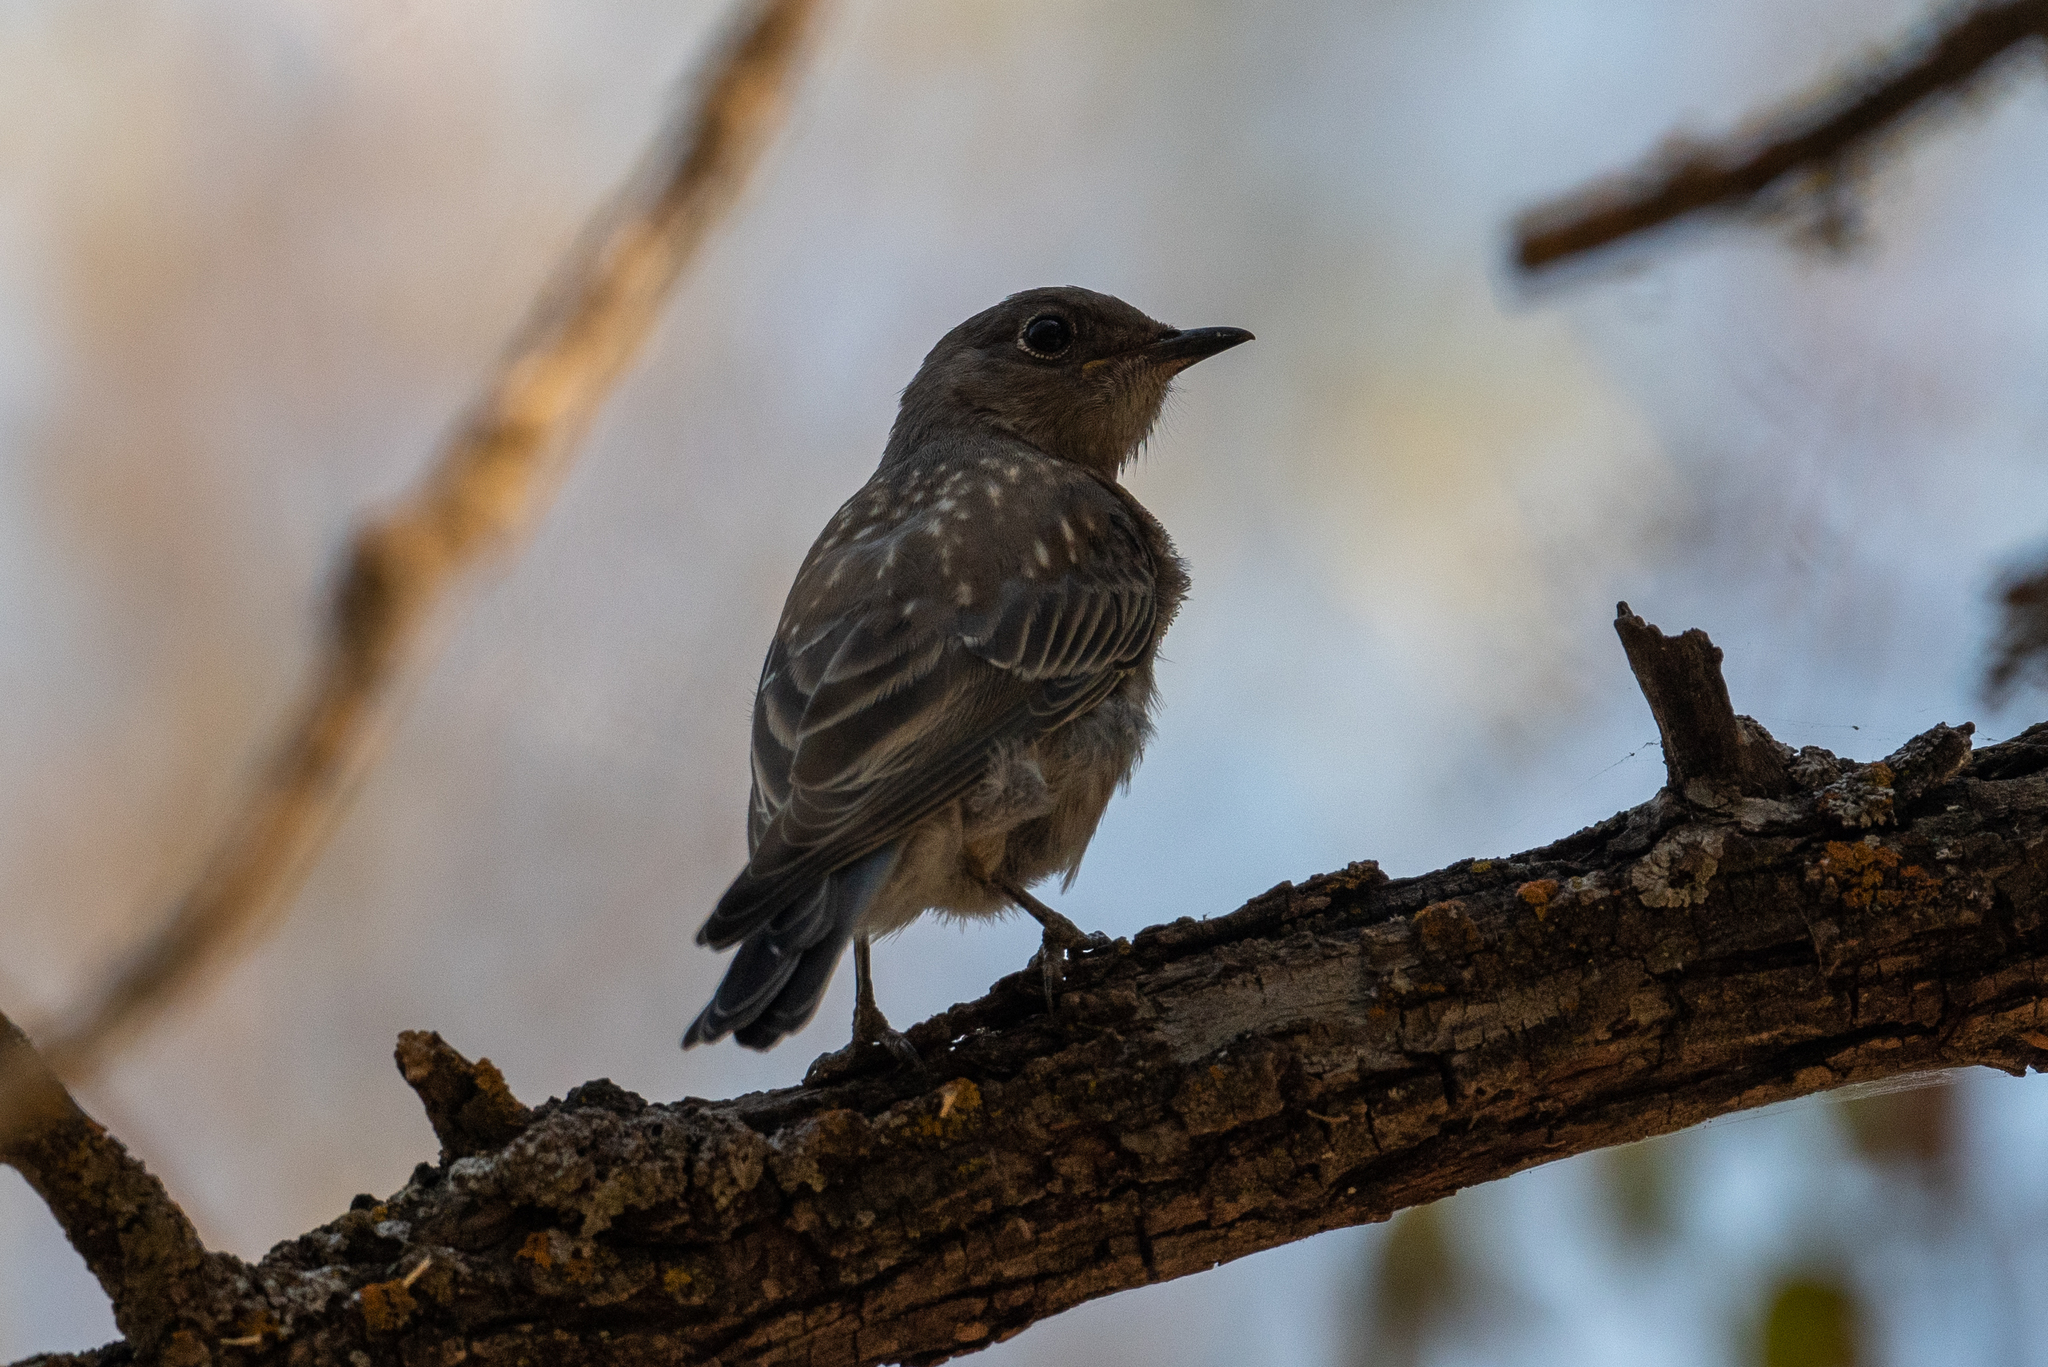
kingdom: Animalia
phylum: Chordata
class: Aves
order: Passeriformes
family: Turdidae
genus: Sialia
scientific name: Sialia mexicana
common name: Western bluebird
